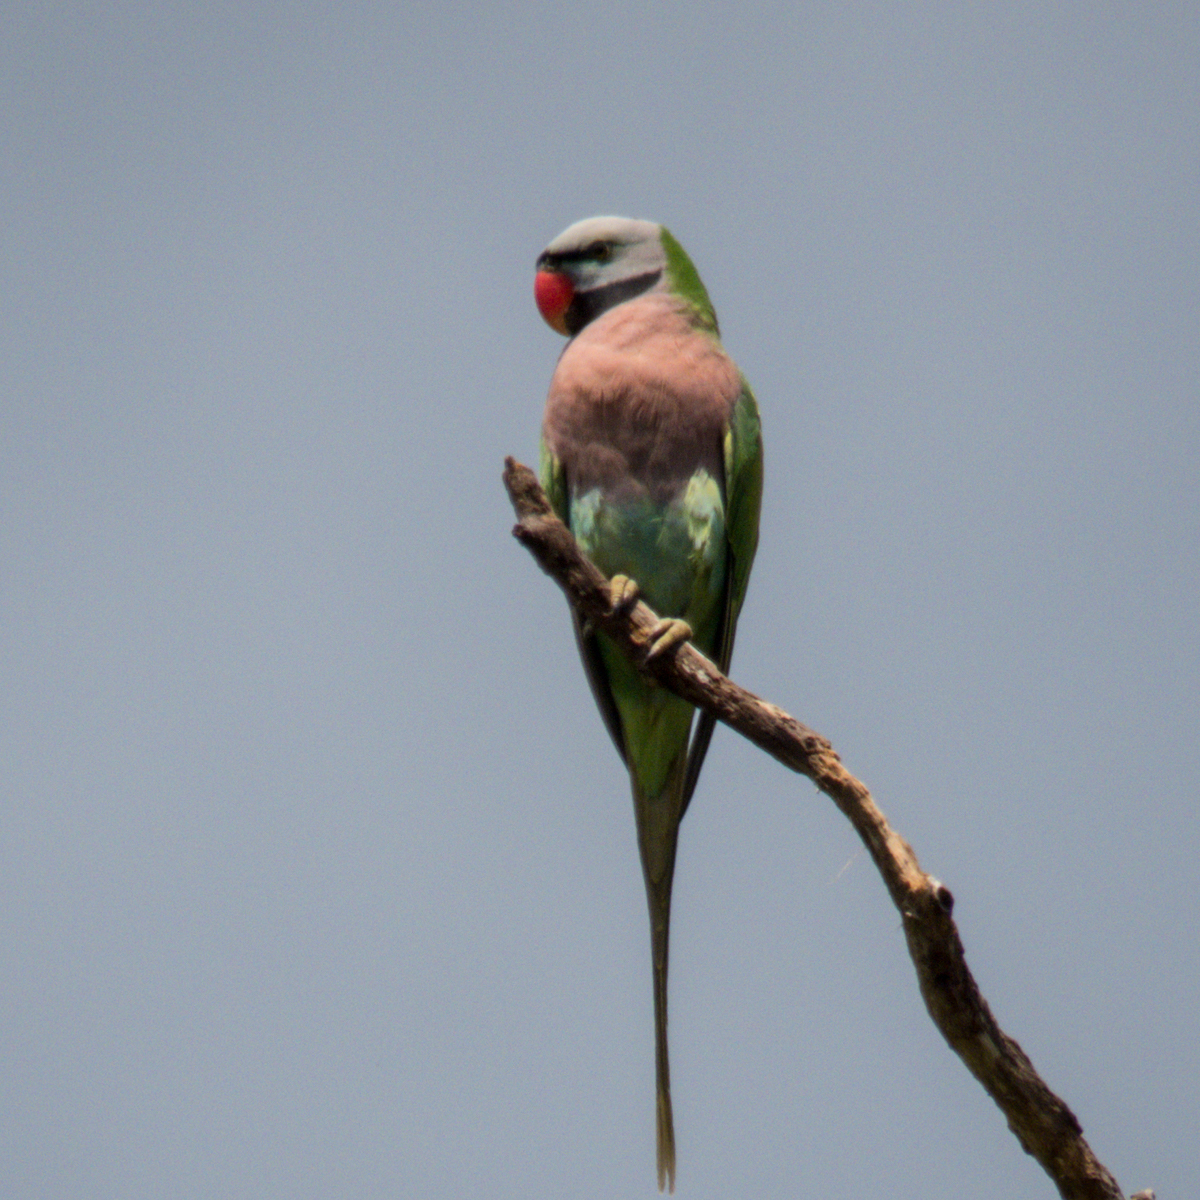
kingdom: Animalia
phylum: Chordata
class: Aves
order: Psittaciformes
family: Psittacidae
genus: Psittacula
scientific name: Psittacula alexandri
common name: Red-breasted parakeet
